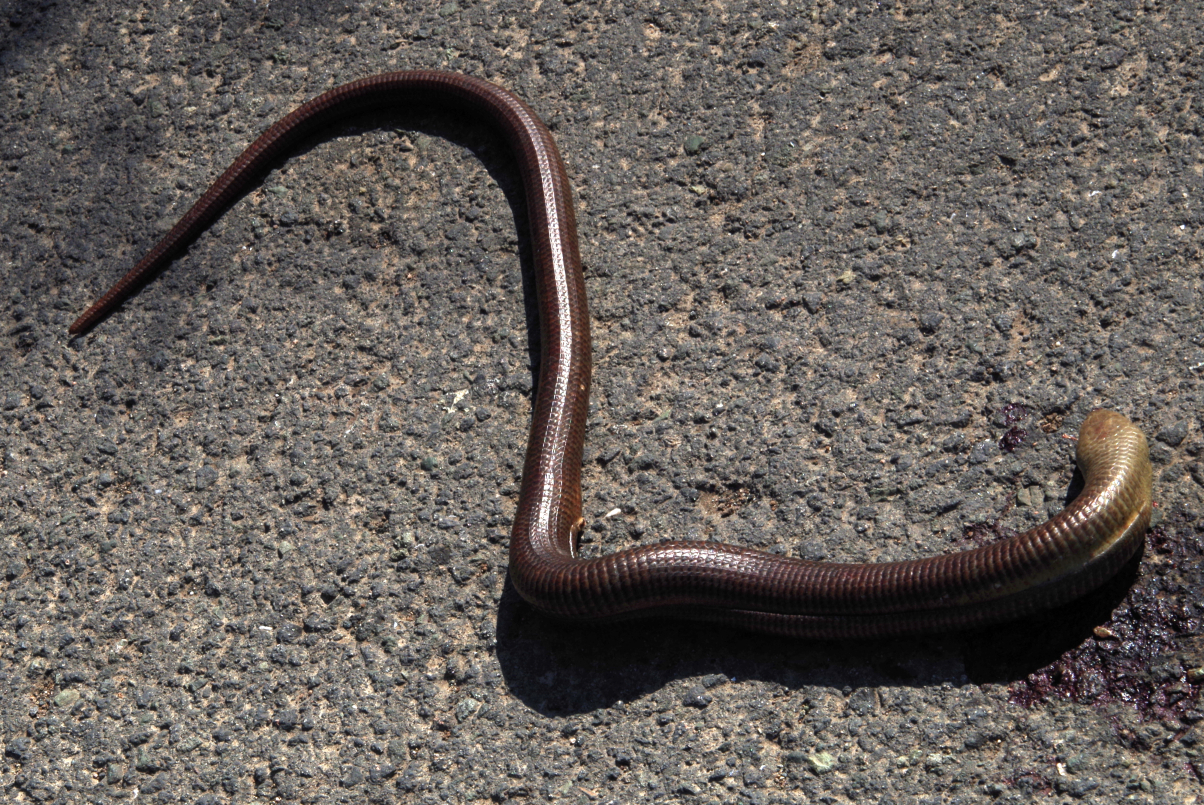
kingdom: Animalia
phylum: Chordata
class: Squamata
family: Anguidae
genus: Pseudopus
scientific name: Pseudopus apodus
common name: European glass lizard
